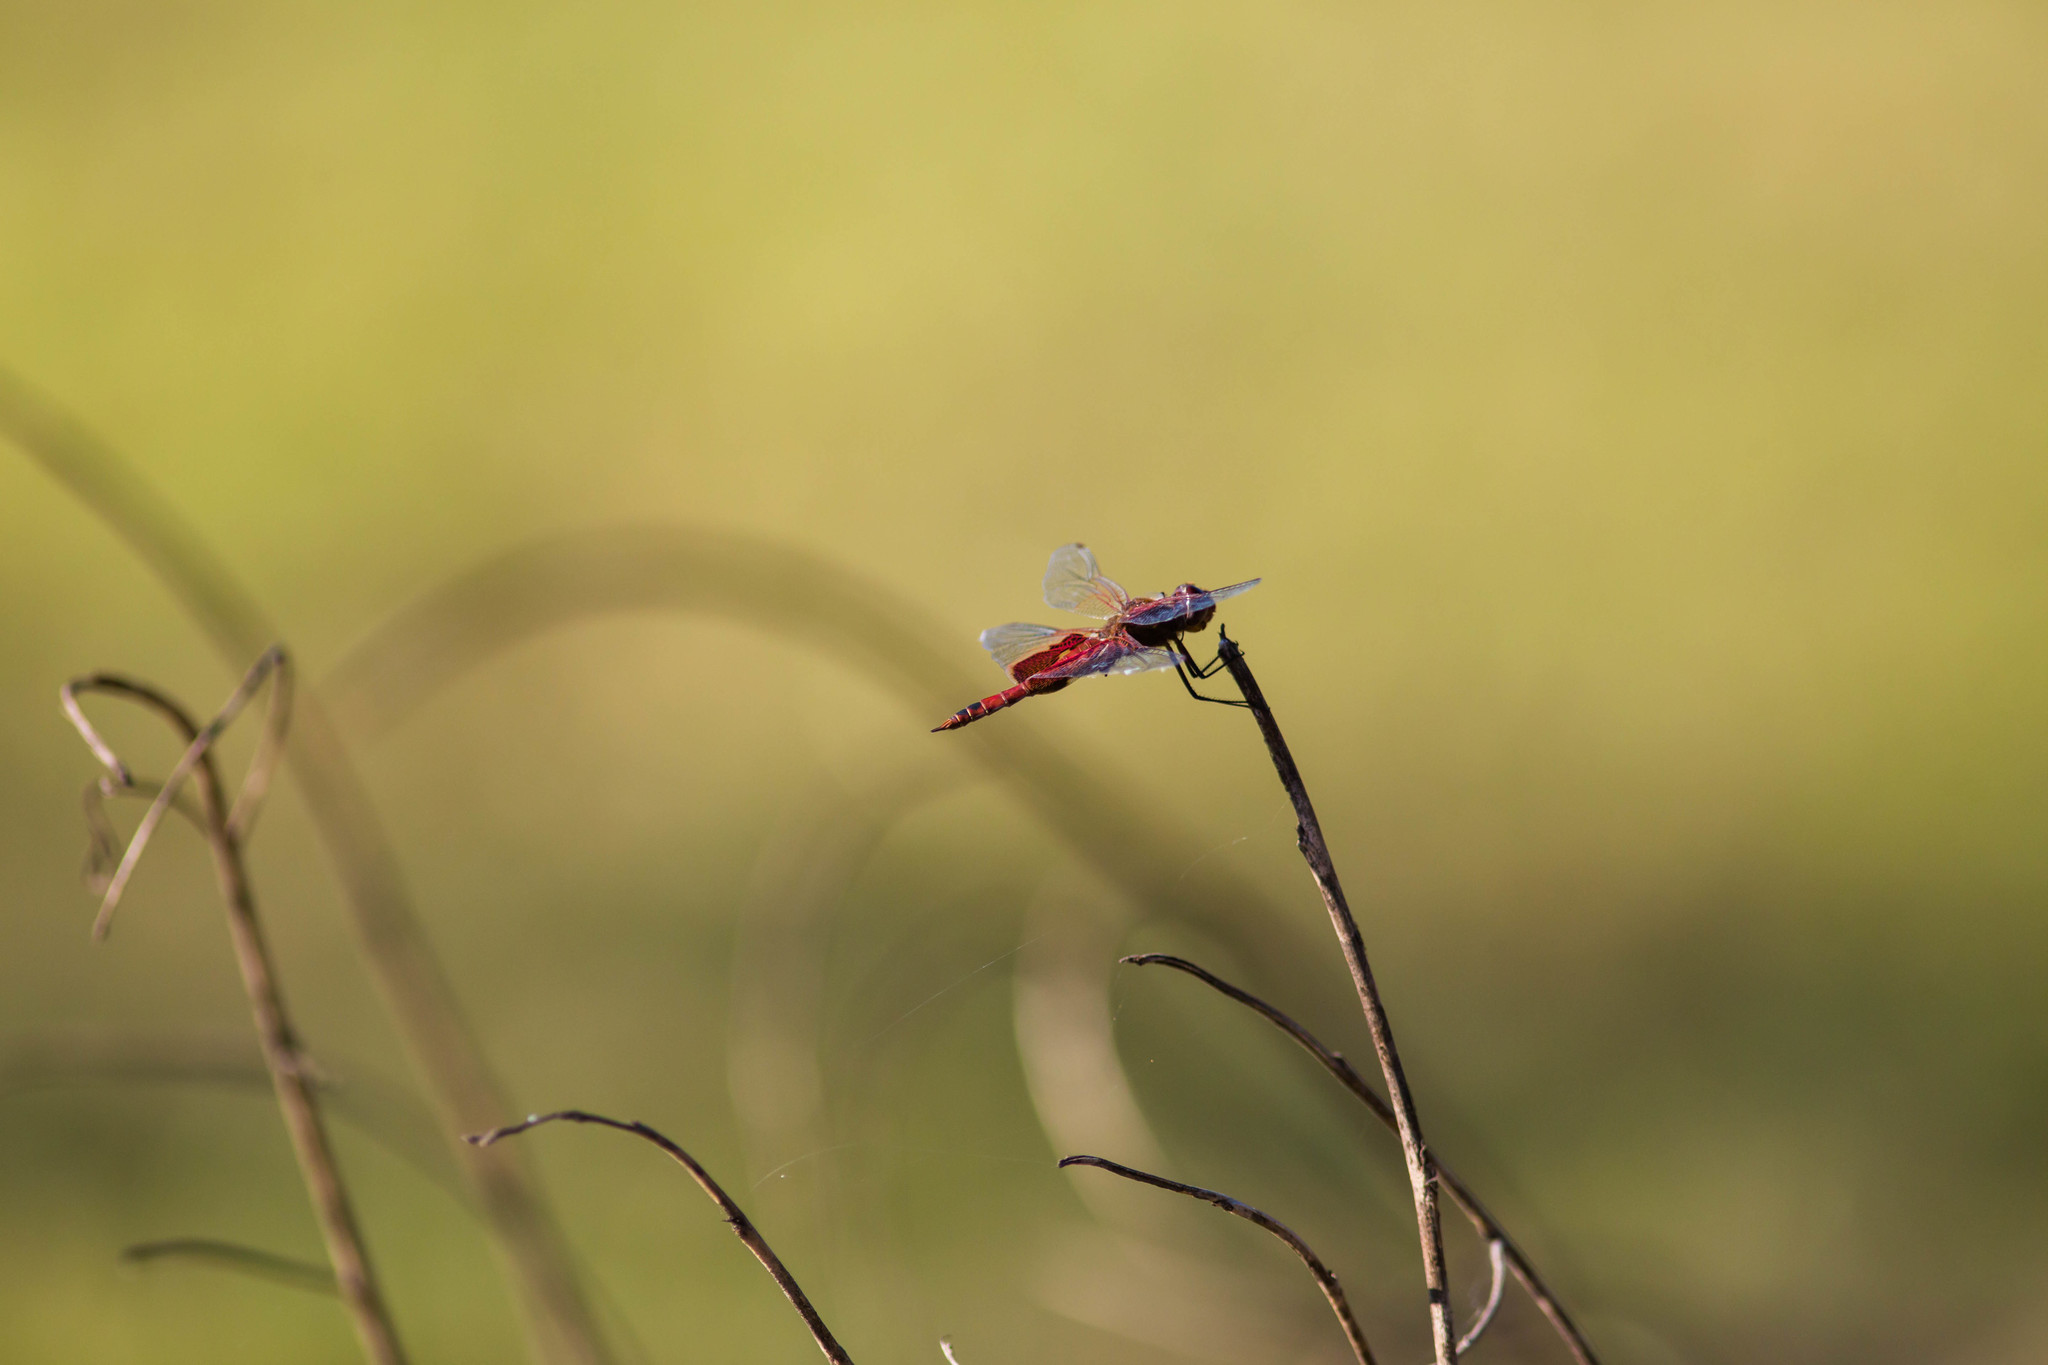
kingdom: Animalia
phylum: Arthropoda
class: Insecta
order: Odonata
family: Libellulidae
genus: Tramea
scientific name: Tramea onusta
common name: Red saddlebags
